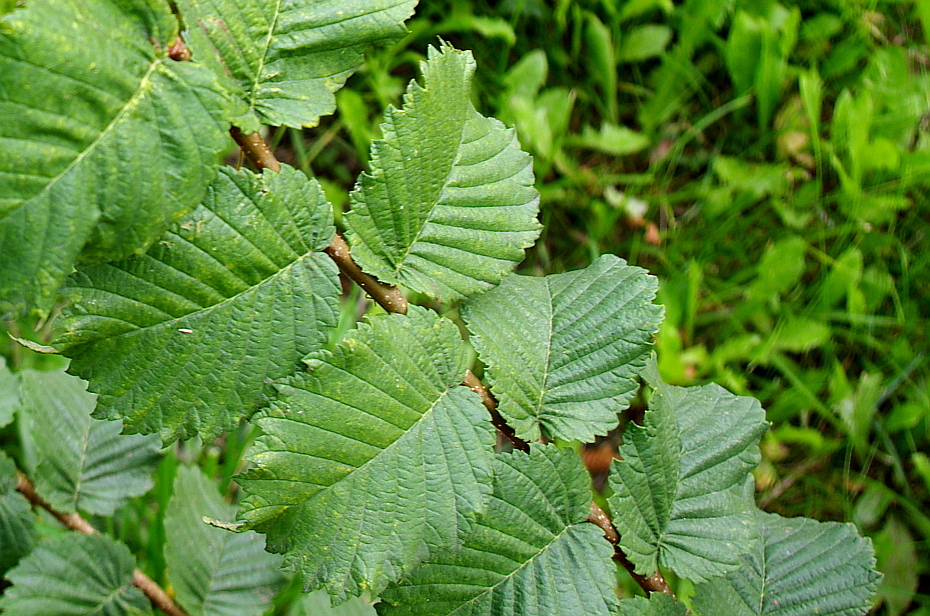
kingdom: Plantae
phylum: Tracheophyta
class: Magnoliopsida
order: Rosales
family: Ulmaceae
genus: Ulmus
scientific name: Ulmus glabra
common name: Wych elm
